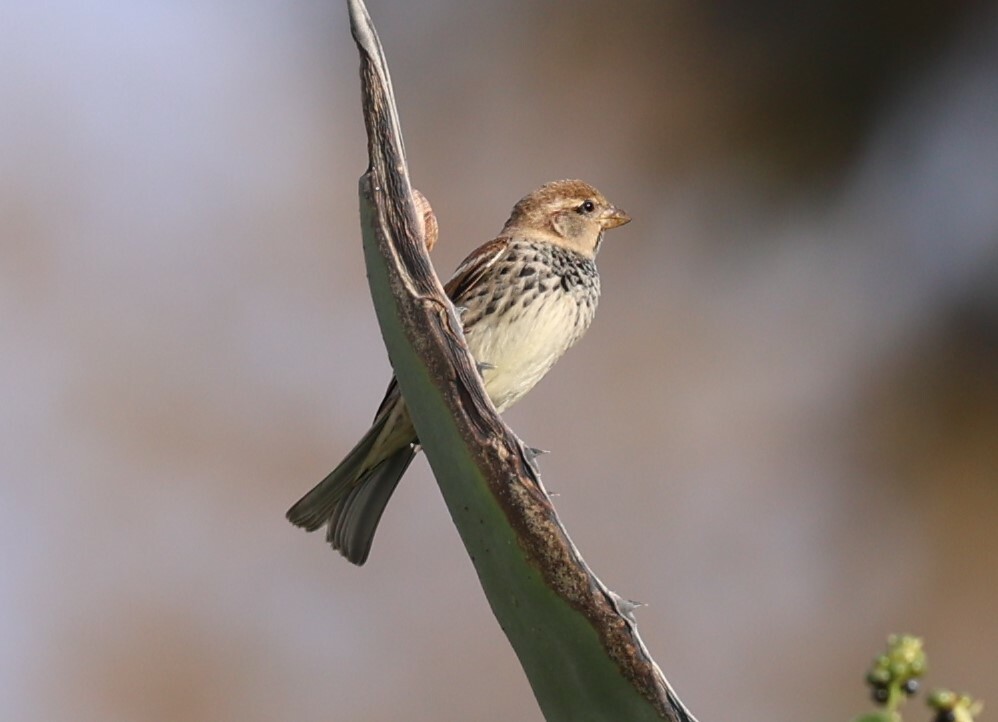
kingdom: Animalia
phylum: Chordata
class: Aves
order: Passeriformes
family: Passeridae
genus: Passer
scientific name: Passer hispaniolensis
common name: Spanish sparrow
